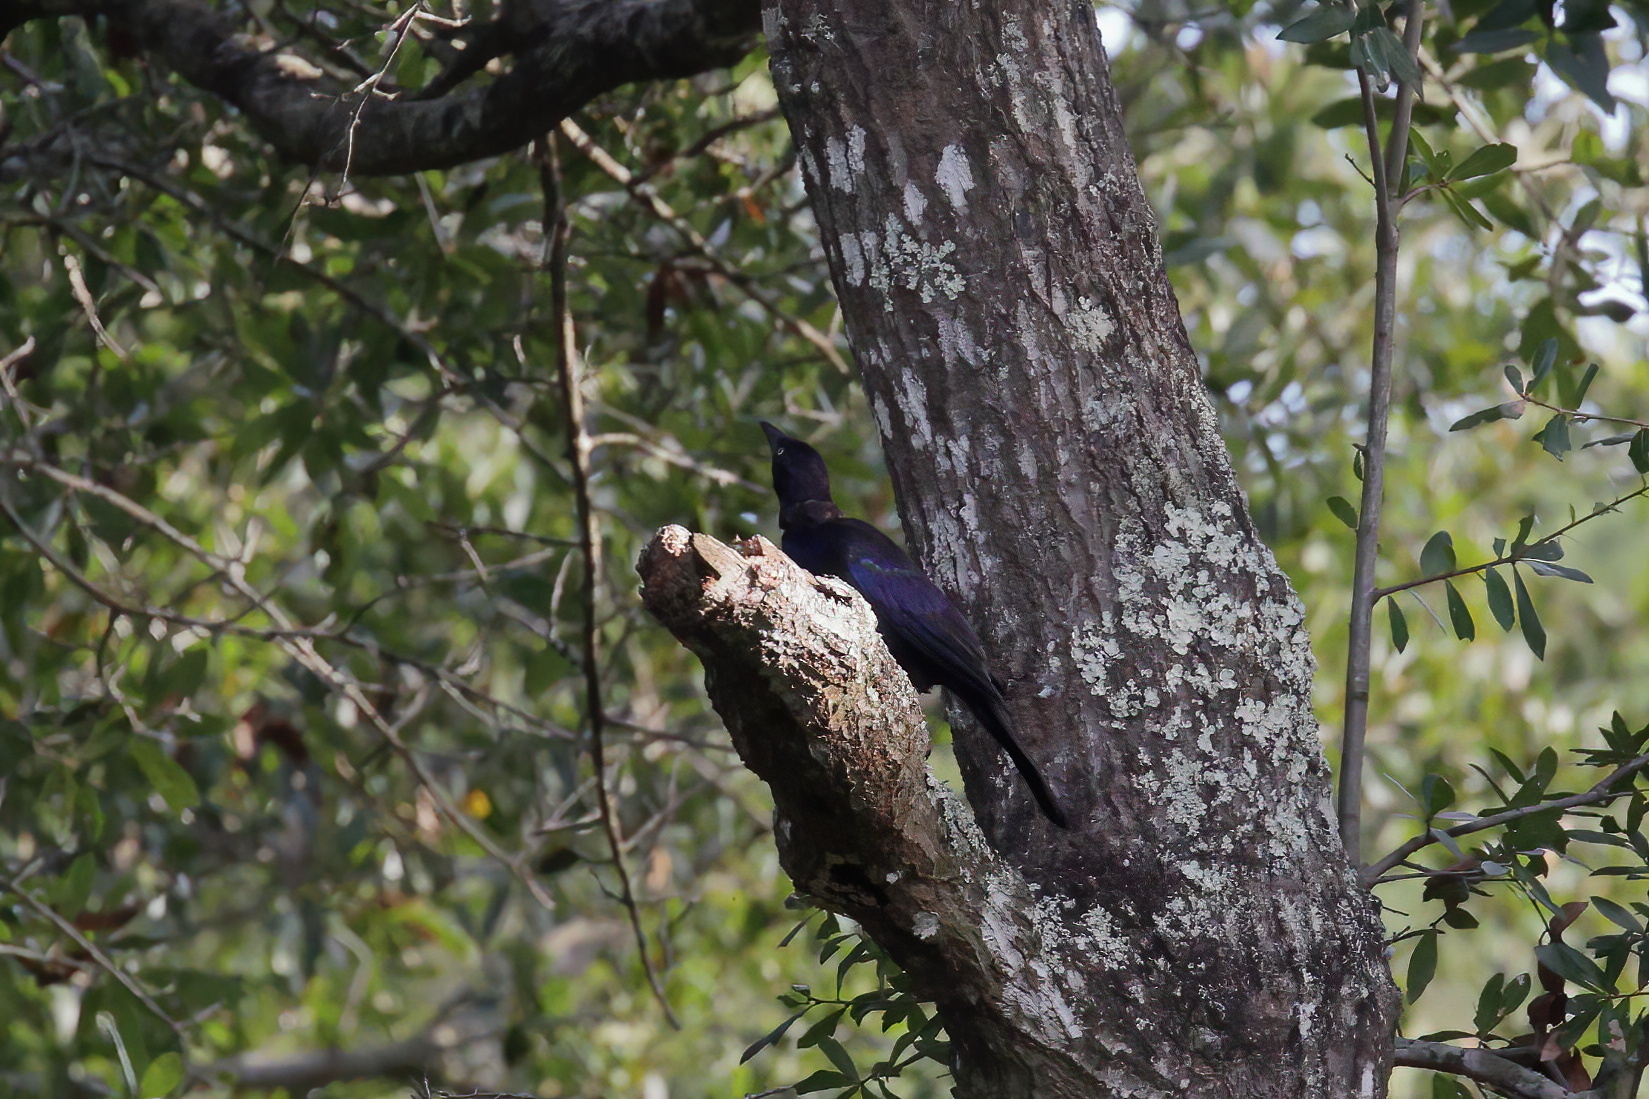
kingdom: Animalia
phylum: Chordata
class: Aves
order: Passeriformes
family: Icteridae
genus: Quiscalus
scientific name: Quiscalus quiscula
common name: Common grackle
